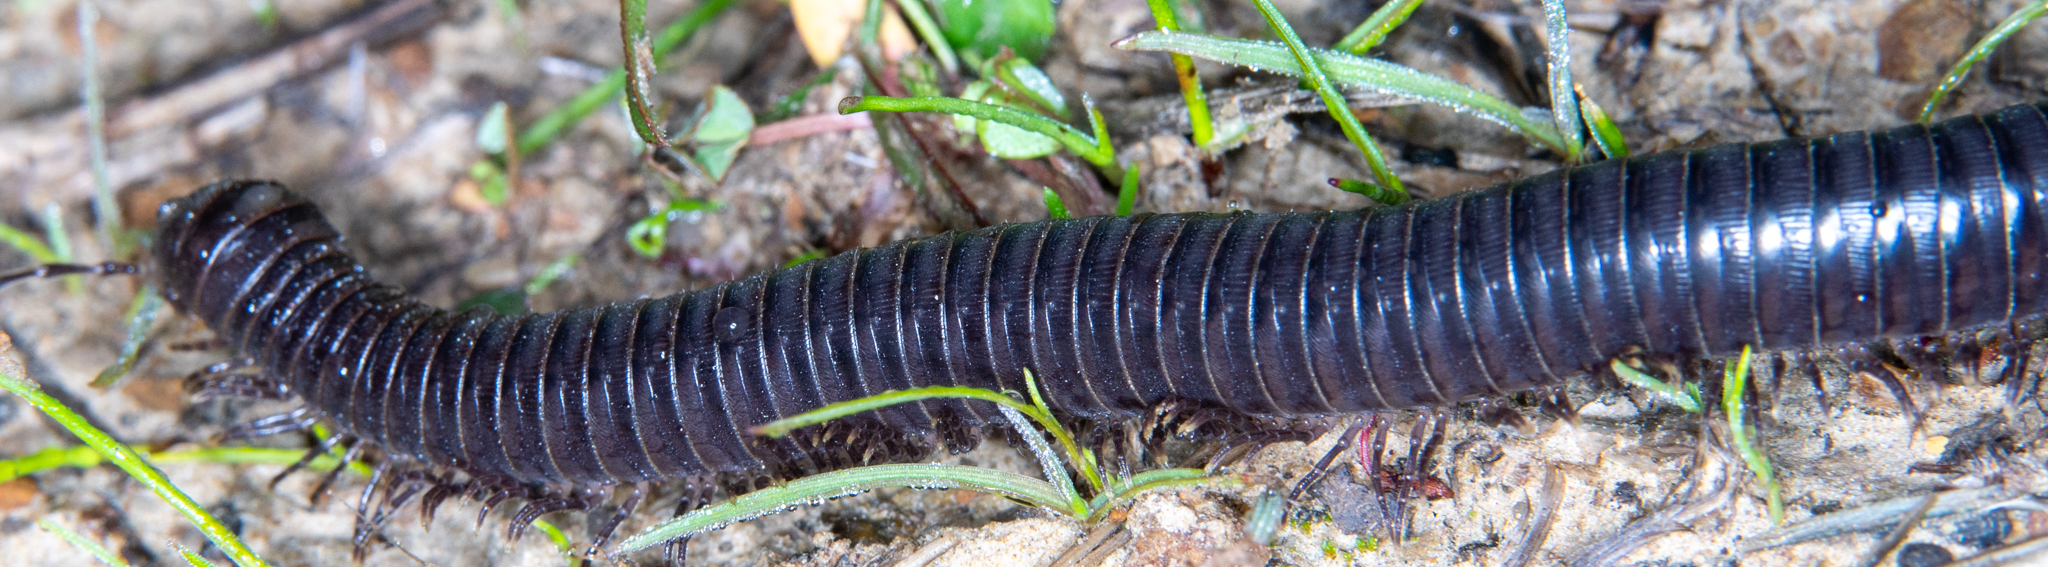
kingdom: Animalia
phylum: Arthropoda
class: Diplopoda
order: Julida
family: Paeromopodidae
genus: Paeromopus
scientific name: Paeromopus angusticeps
